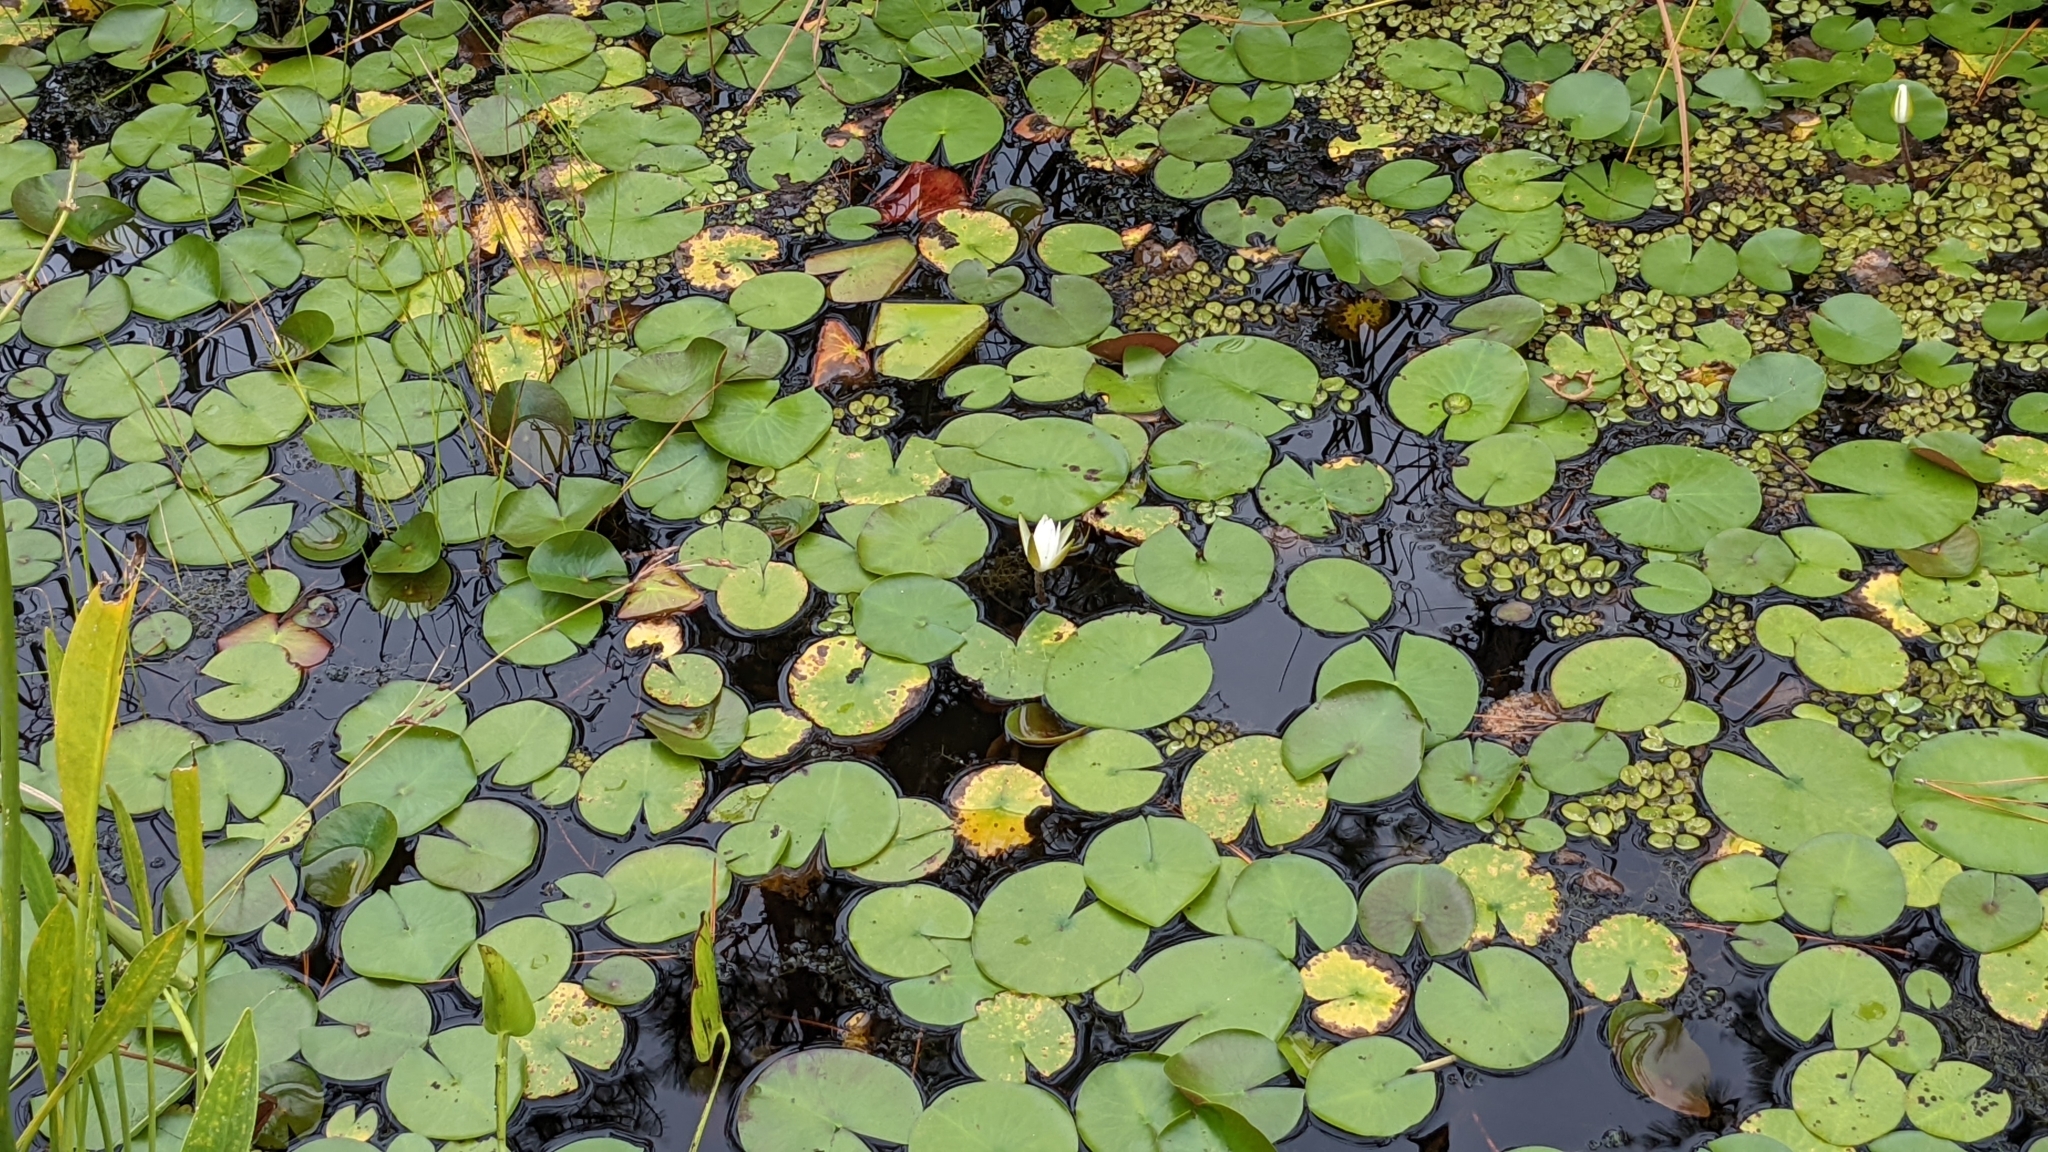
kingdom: Plantae
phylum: Tracheophyta
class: Magnoliopsida
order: Nymphaeales
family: Nymphaeaceae
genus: Nymphaea
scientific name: Nymphaea odorata
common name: Fragrant water-lily
